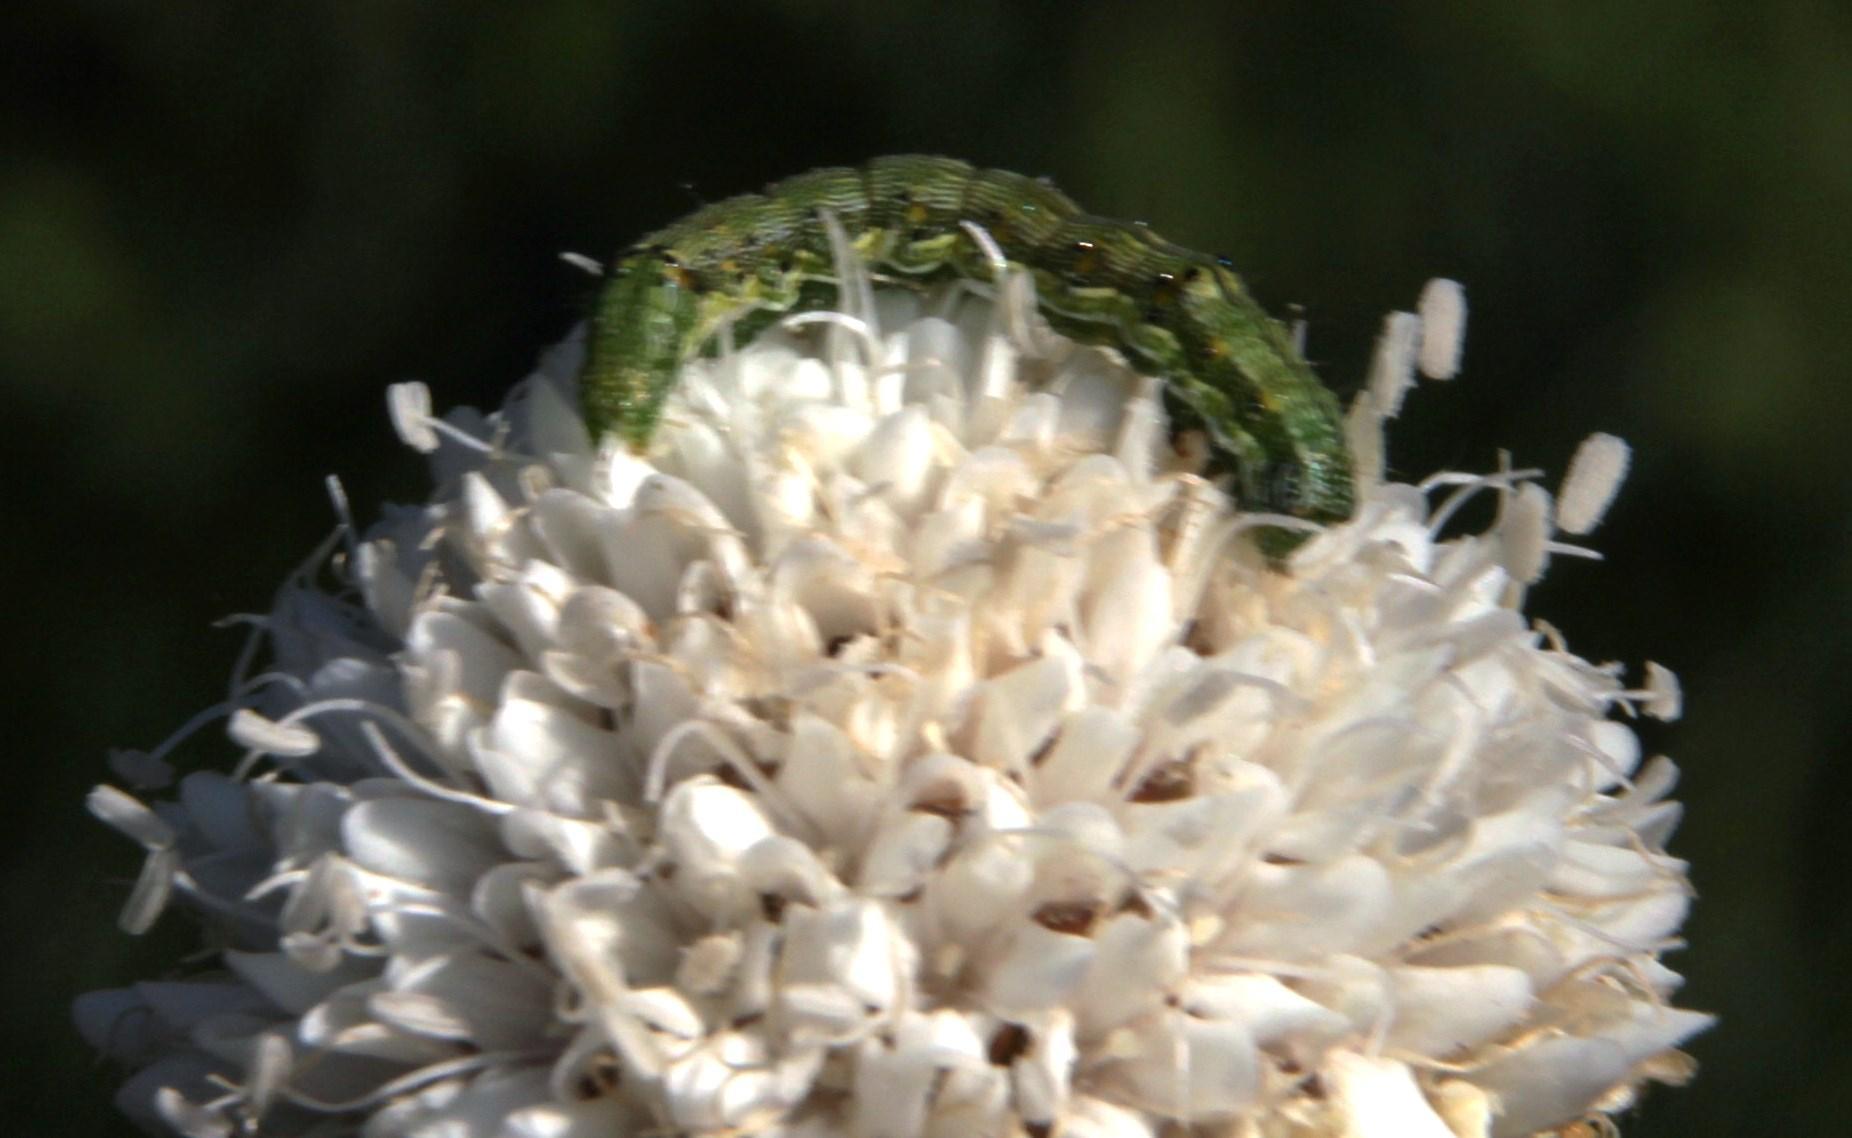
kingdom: Animalia
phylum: Arthropoda
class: Insecta
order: Lepidoptera
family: Noctuidae
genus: Helicoverpa
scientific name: Helicoverpa armigera
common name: Cotton bollworm
